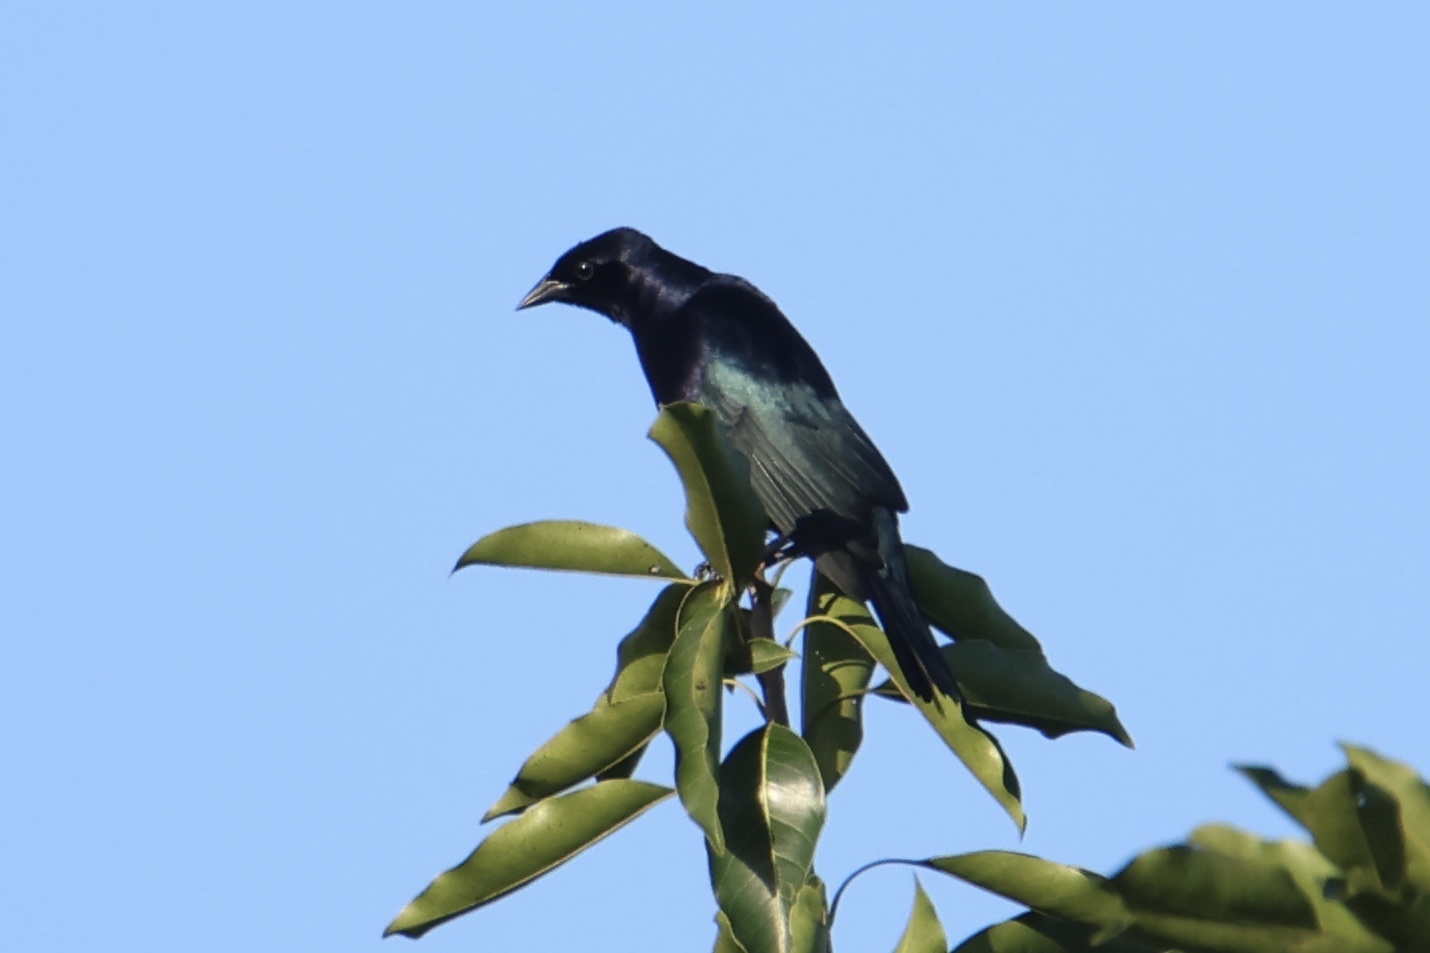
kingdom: Animalia
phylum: Chordata
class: Aves
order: Passeriformes
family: Icteridae
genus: Molothrus
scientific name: Molothrus bonariensis
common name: Shiny cowbird
